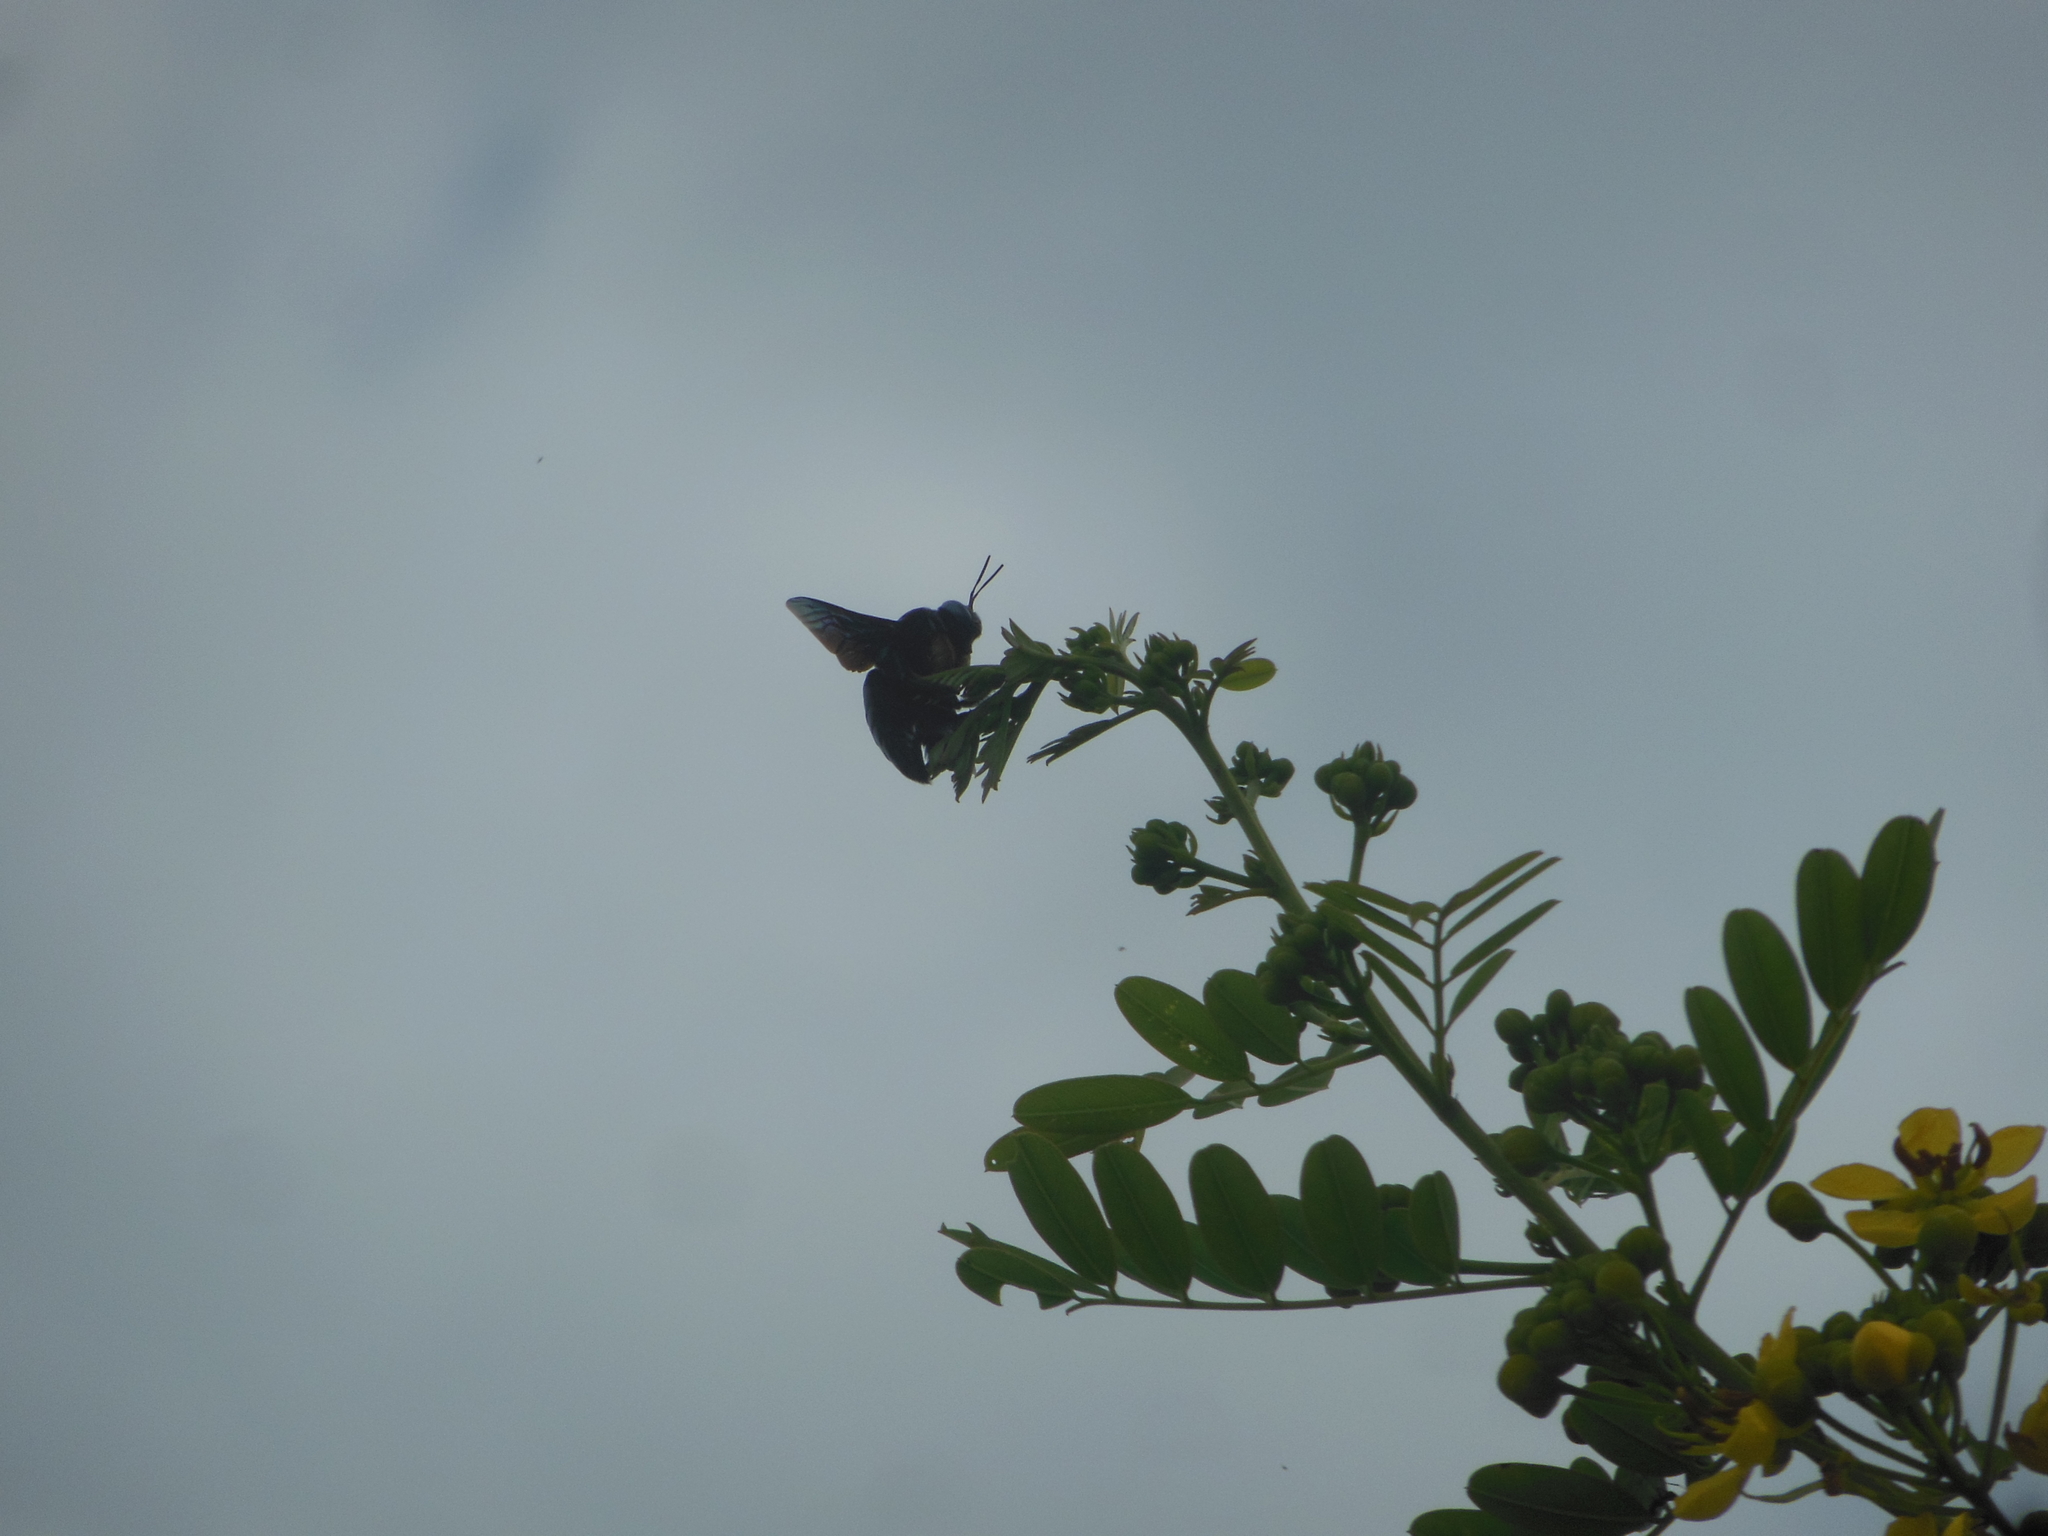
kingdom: Animalia
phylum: Arthropoda
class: Insecta
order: Hymenoptera
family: Apidae
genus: Xylocopa
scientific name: Xylocopa tenuiscapa
